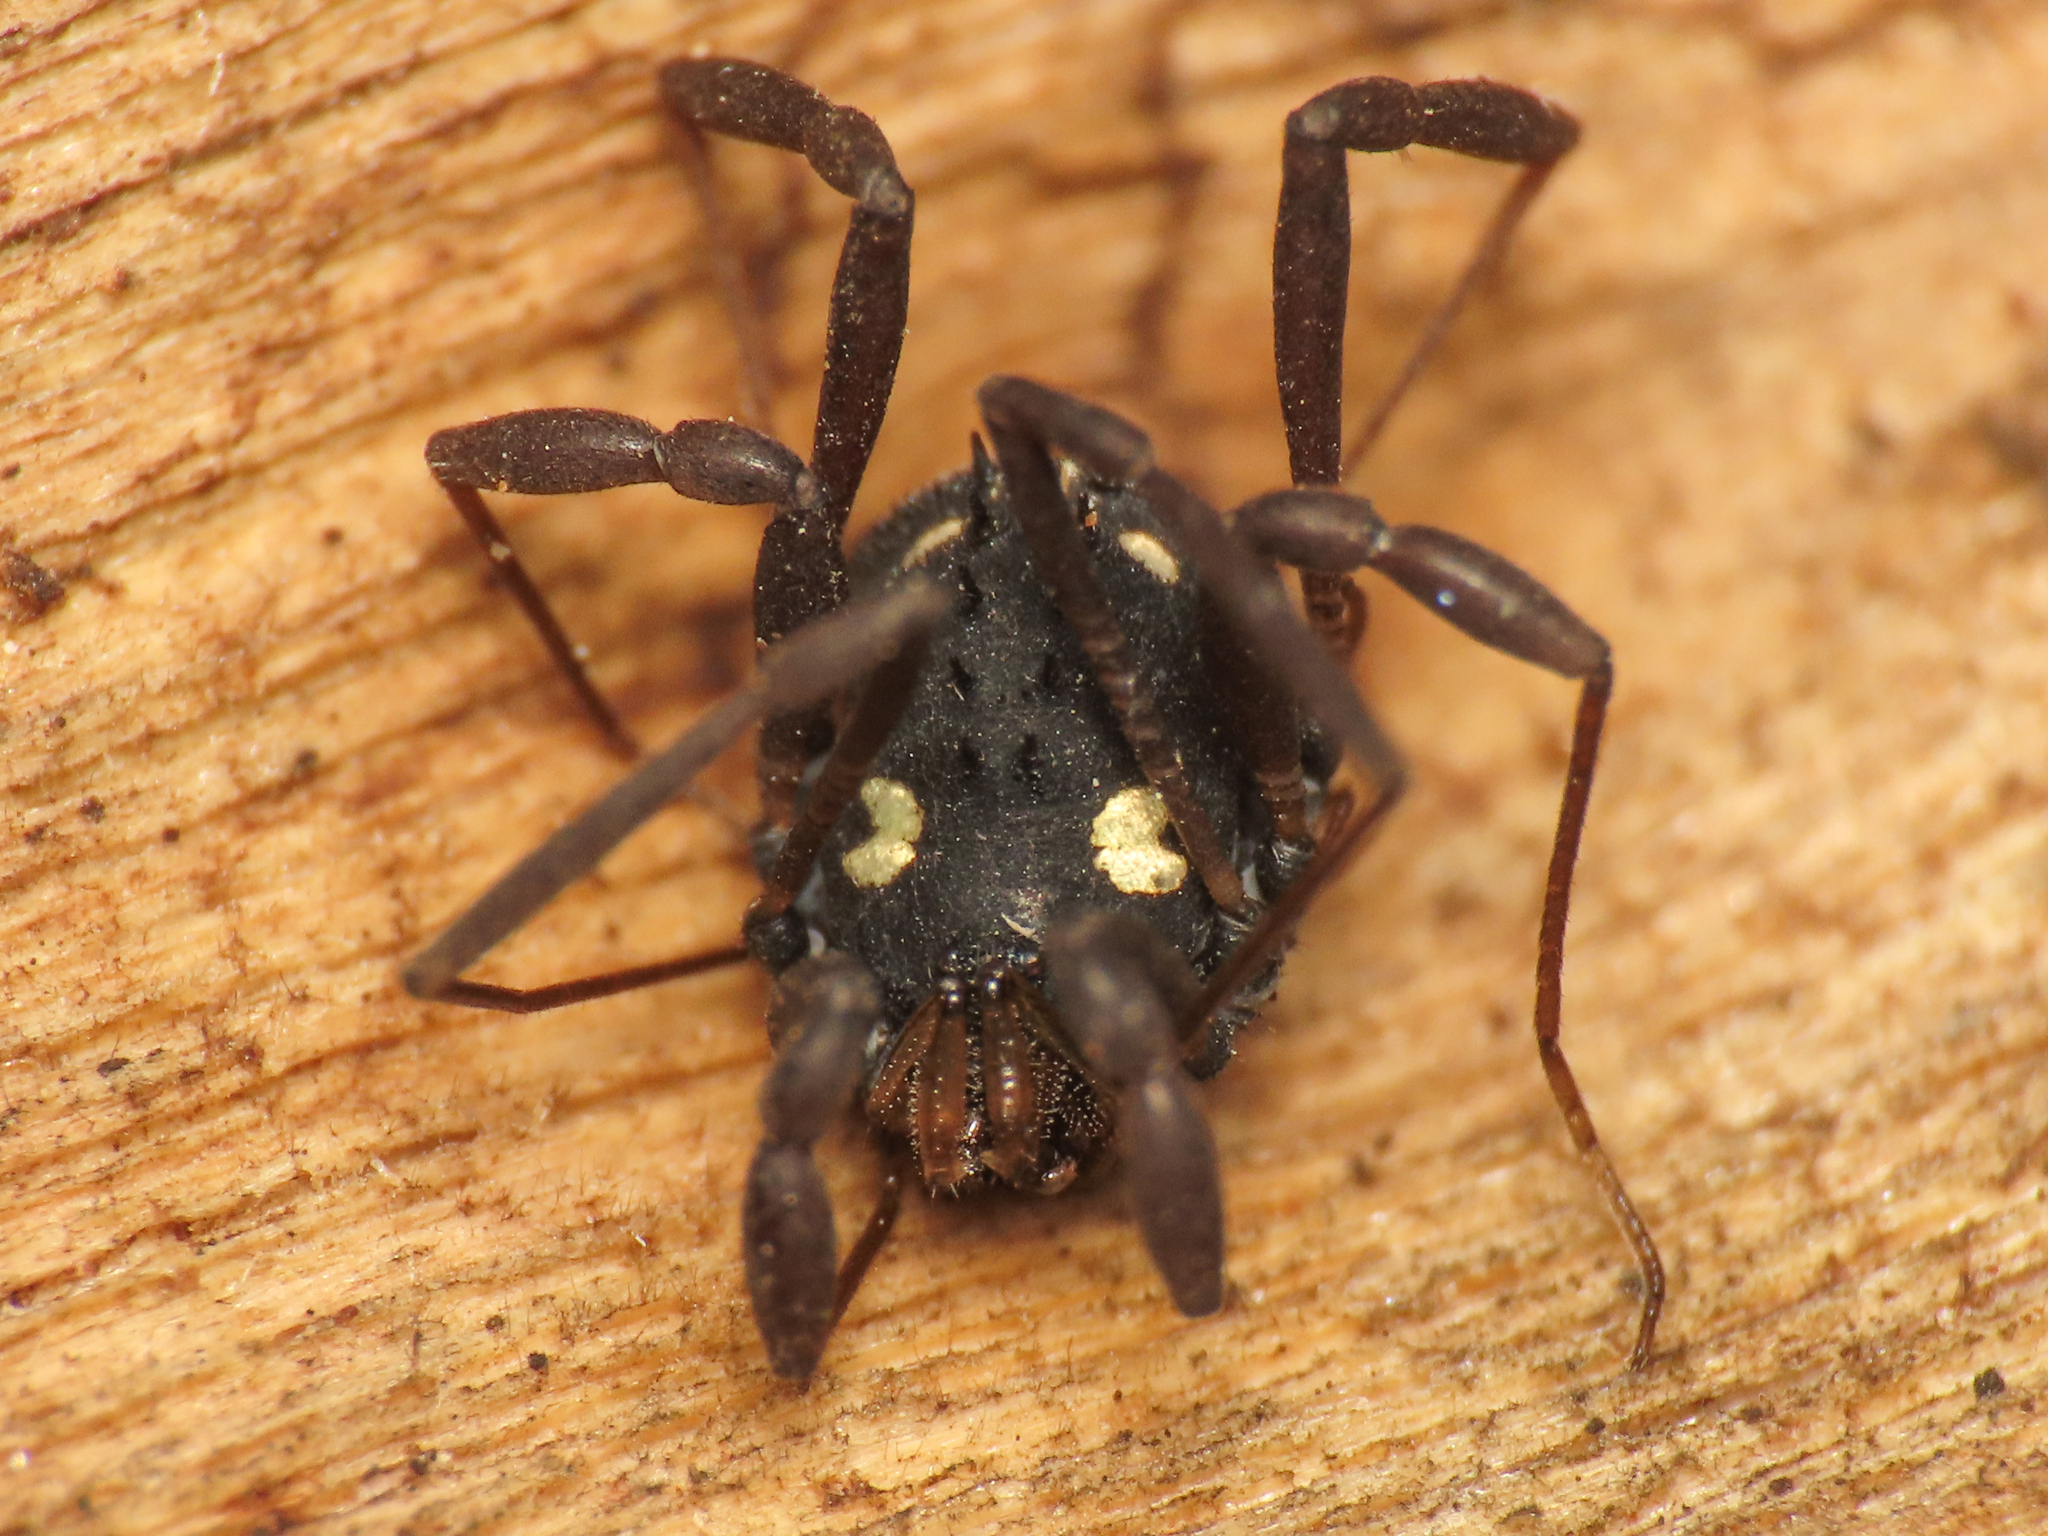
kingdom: Animalia
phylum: Arthropoda
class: Arachnida
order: Opiliones
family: Nemastomatidae
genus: Histricostoma
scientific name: Histricostoma argenteolunulatum
